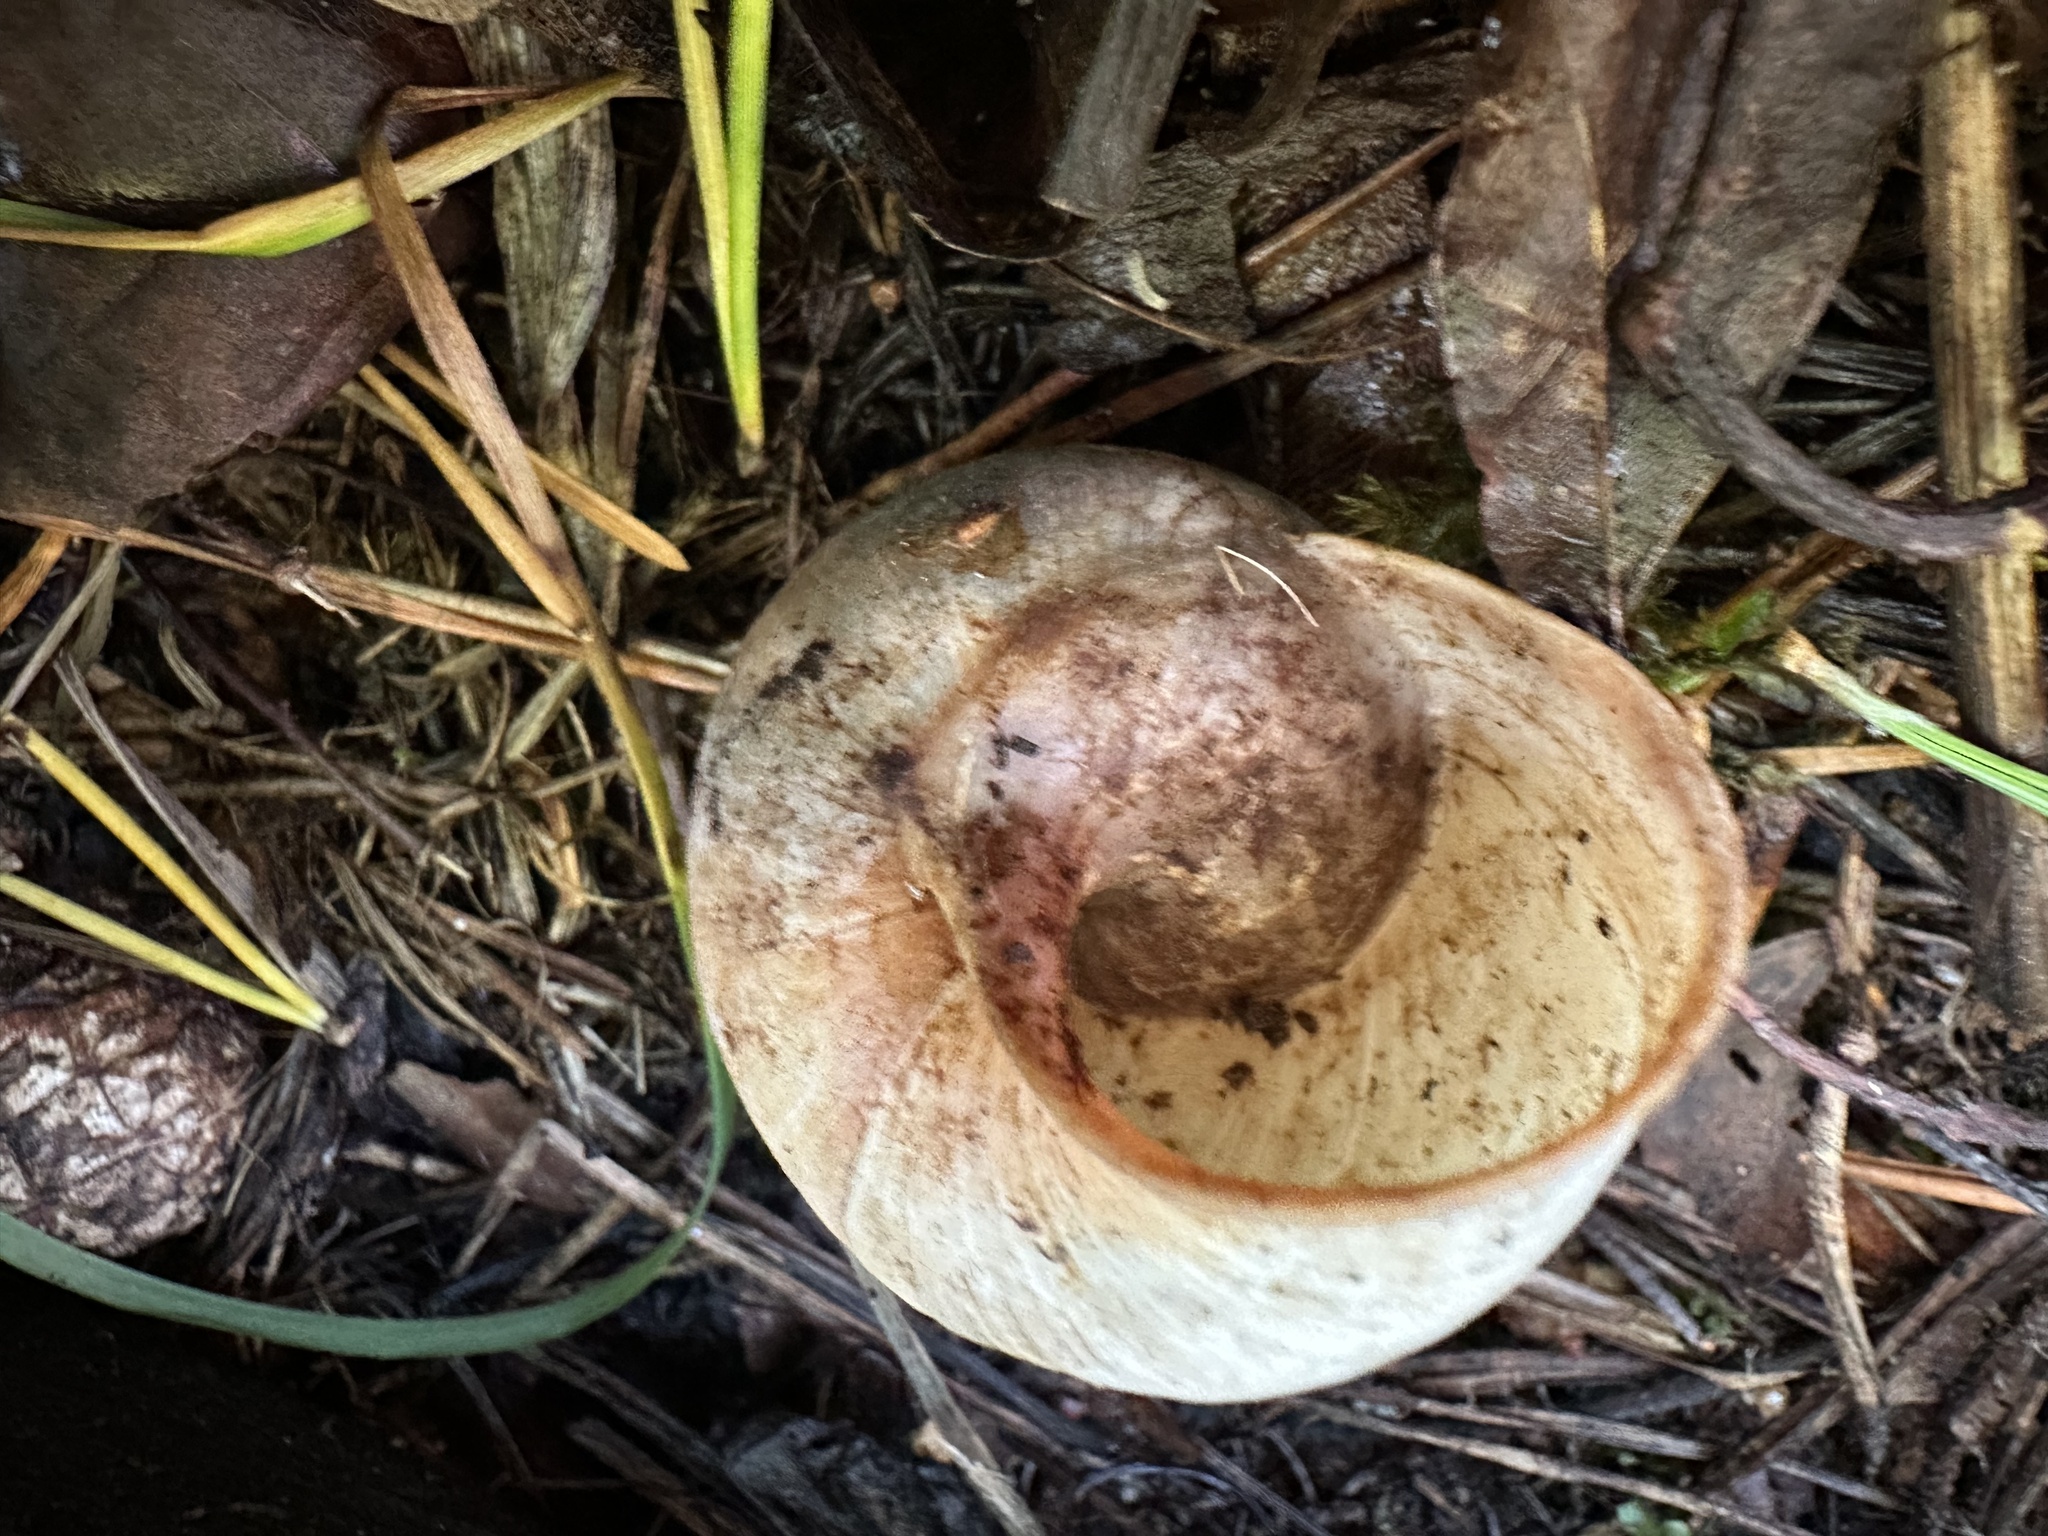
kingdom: Animalia
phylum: Mollusca
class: Gastropoda
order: Stylommatophora
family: Helicidae
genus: Helix
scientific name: Helix pomatia
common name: Roman snail
